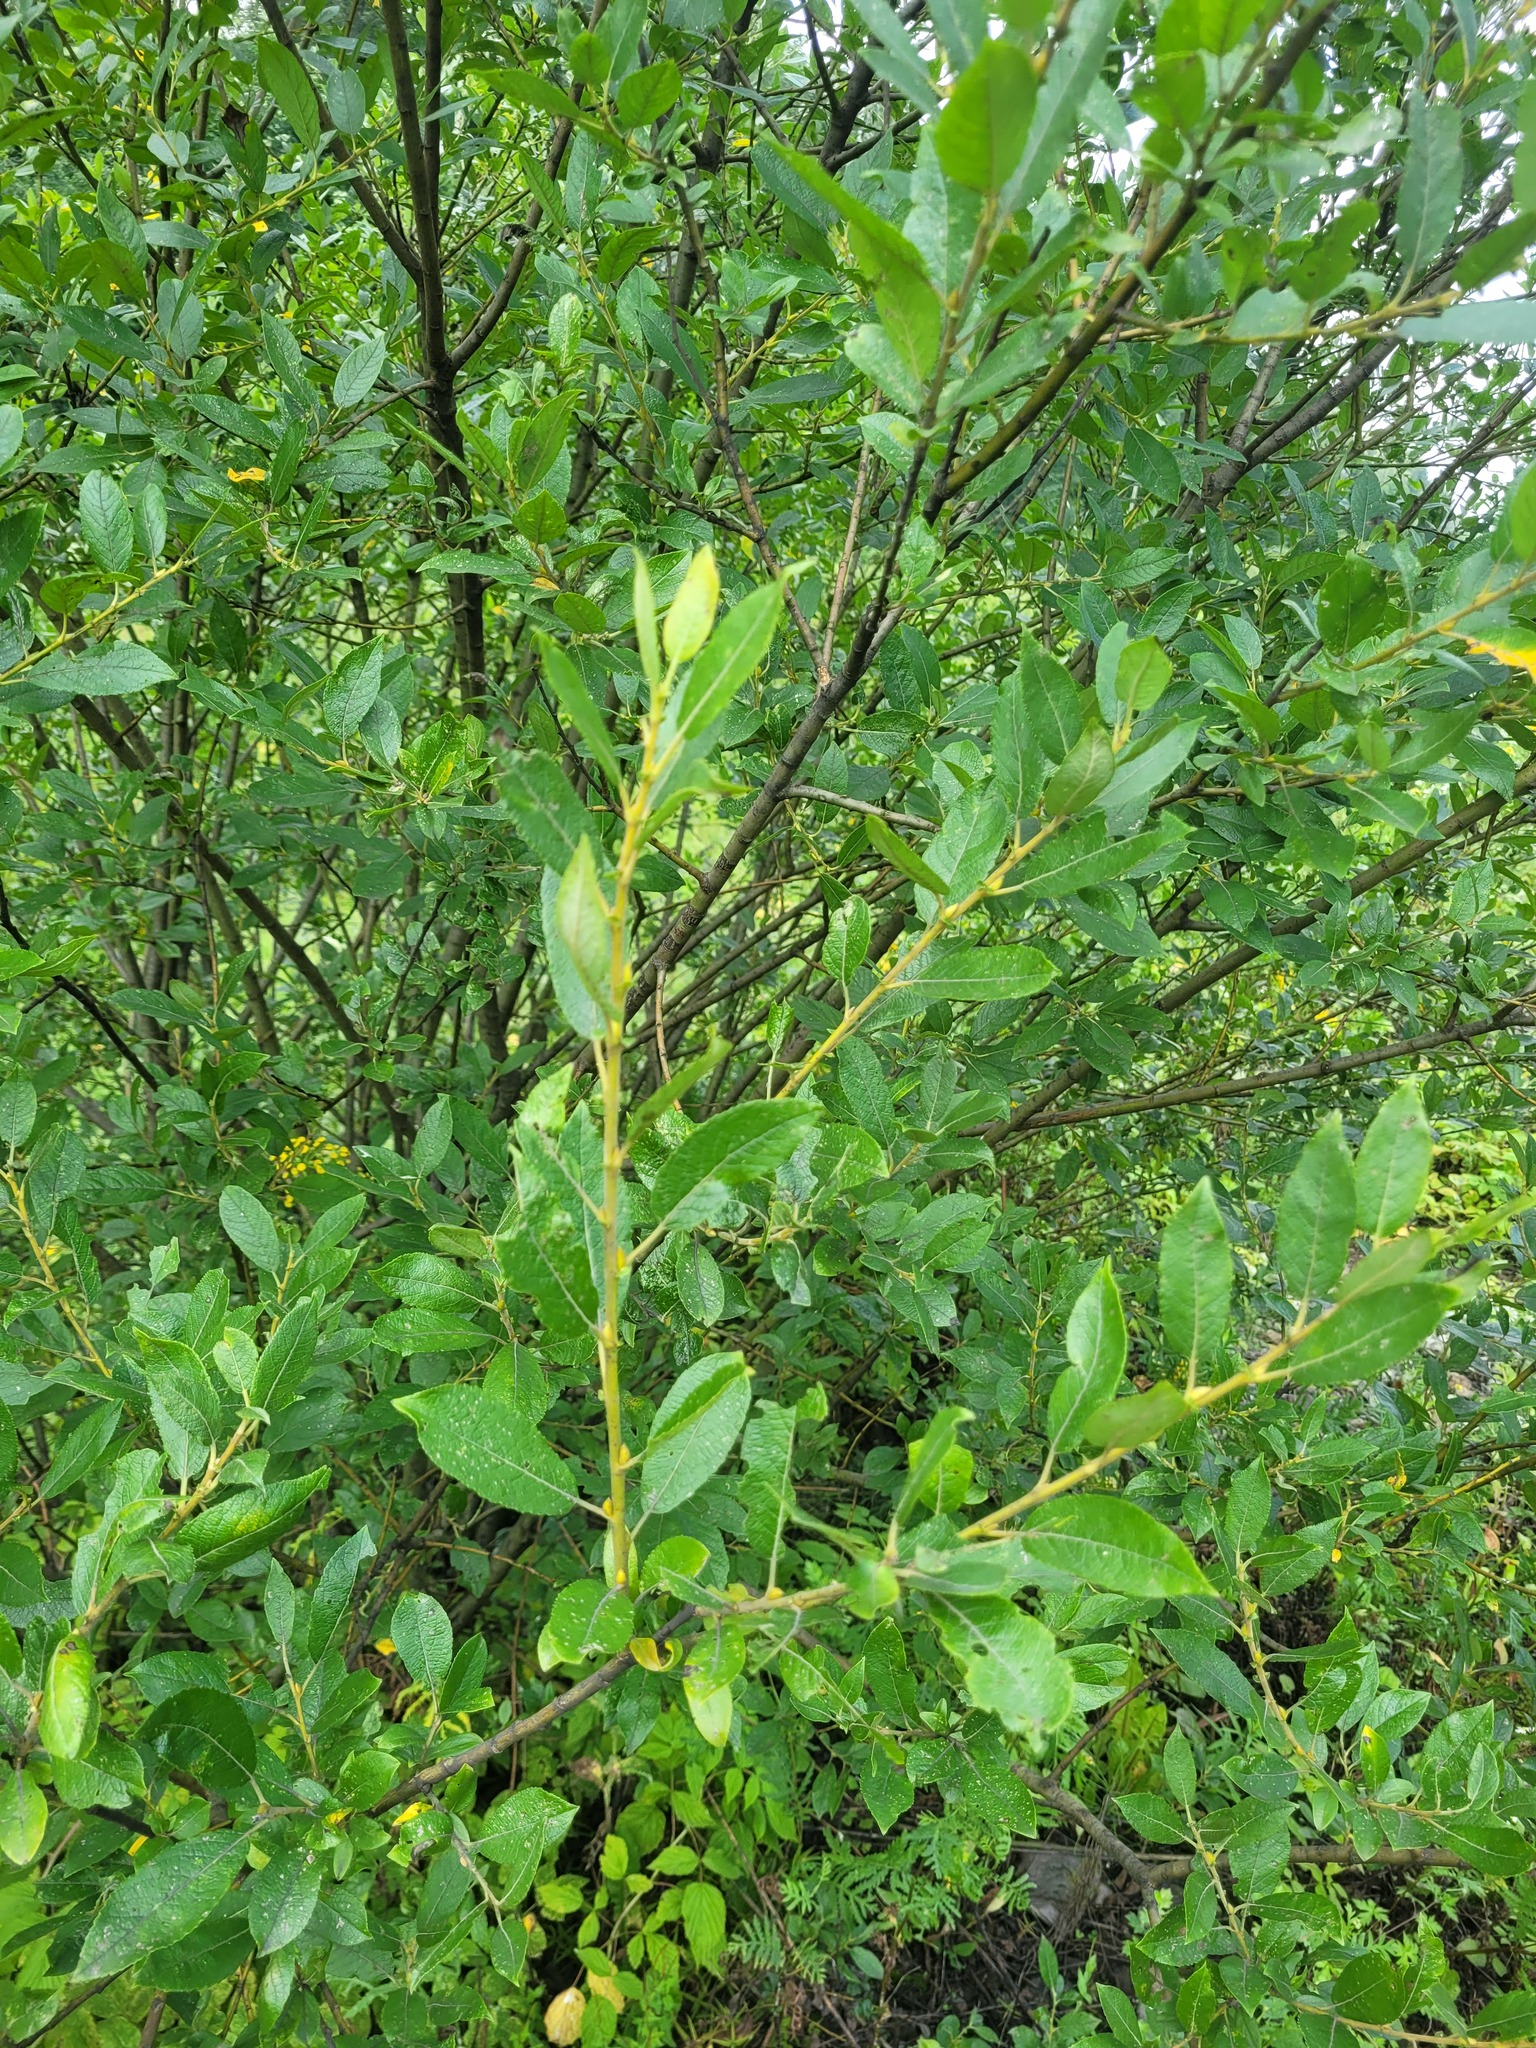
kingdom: Plantae
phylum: Tracheophyta
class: Magnoliopsida
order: Malpighiales
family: Salicaceae
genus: Salix
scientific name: Salix myrsinifolia
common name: Dark-leaved willow
